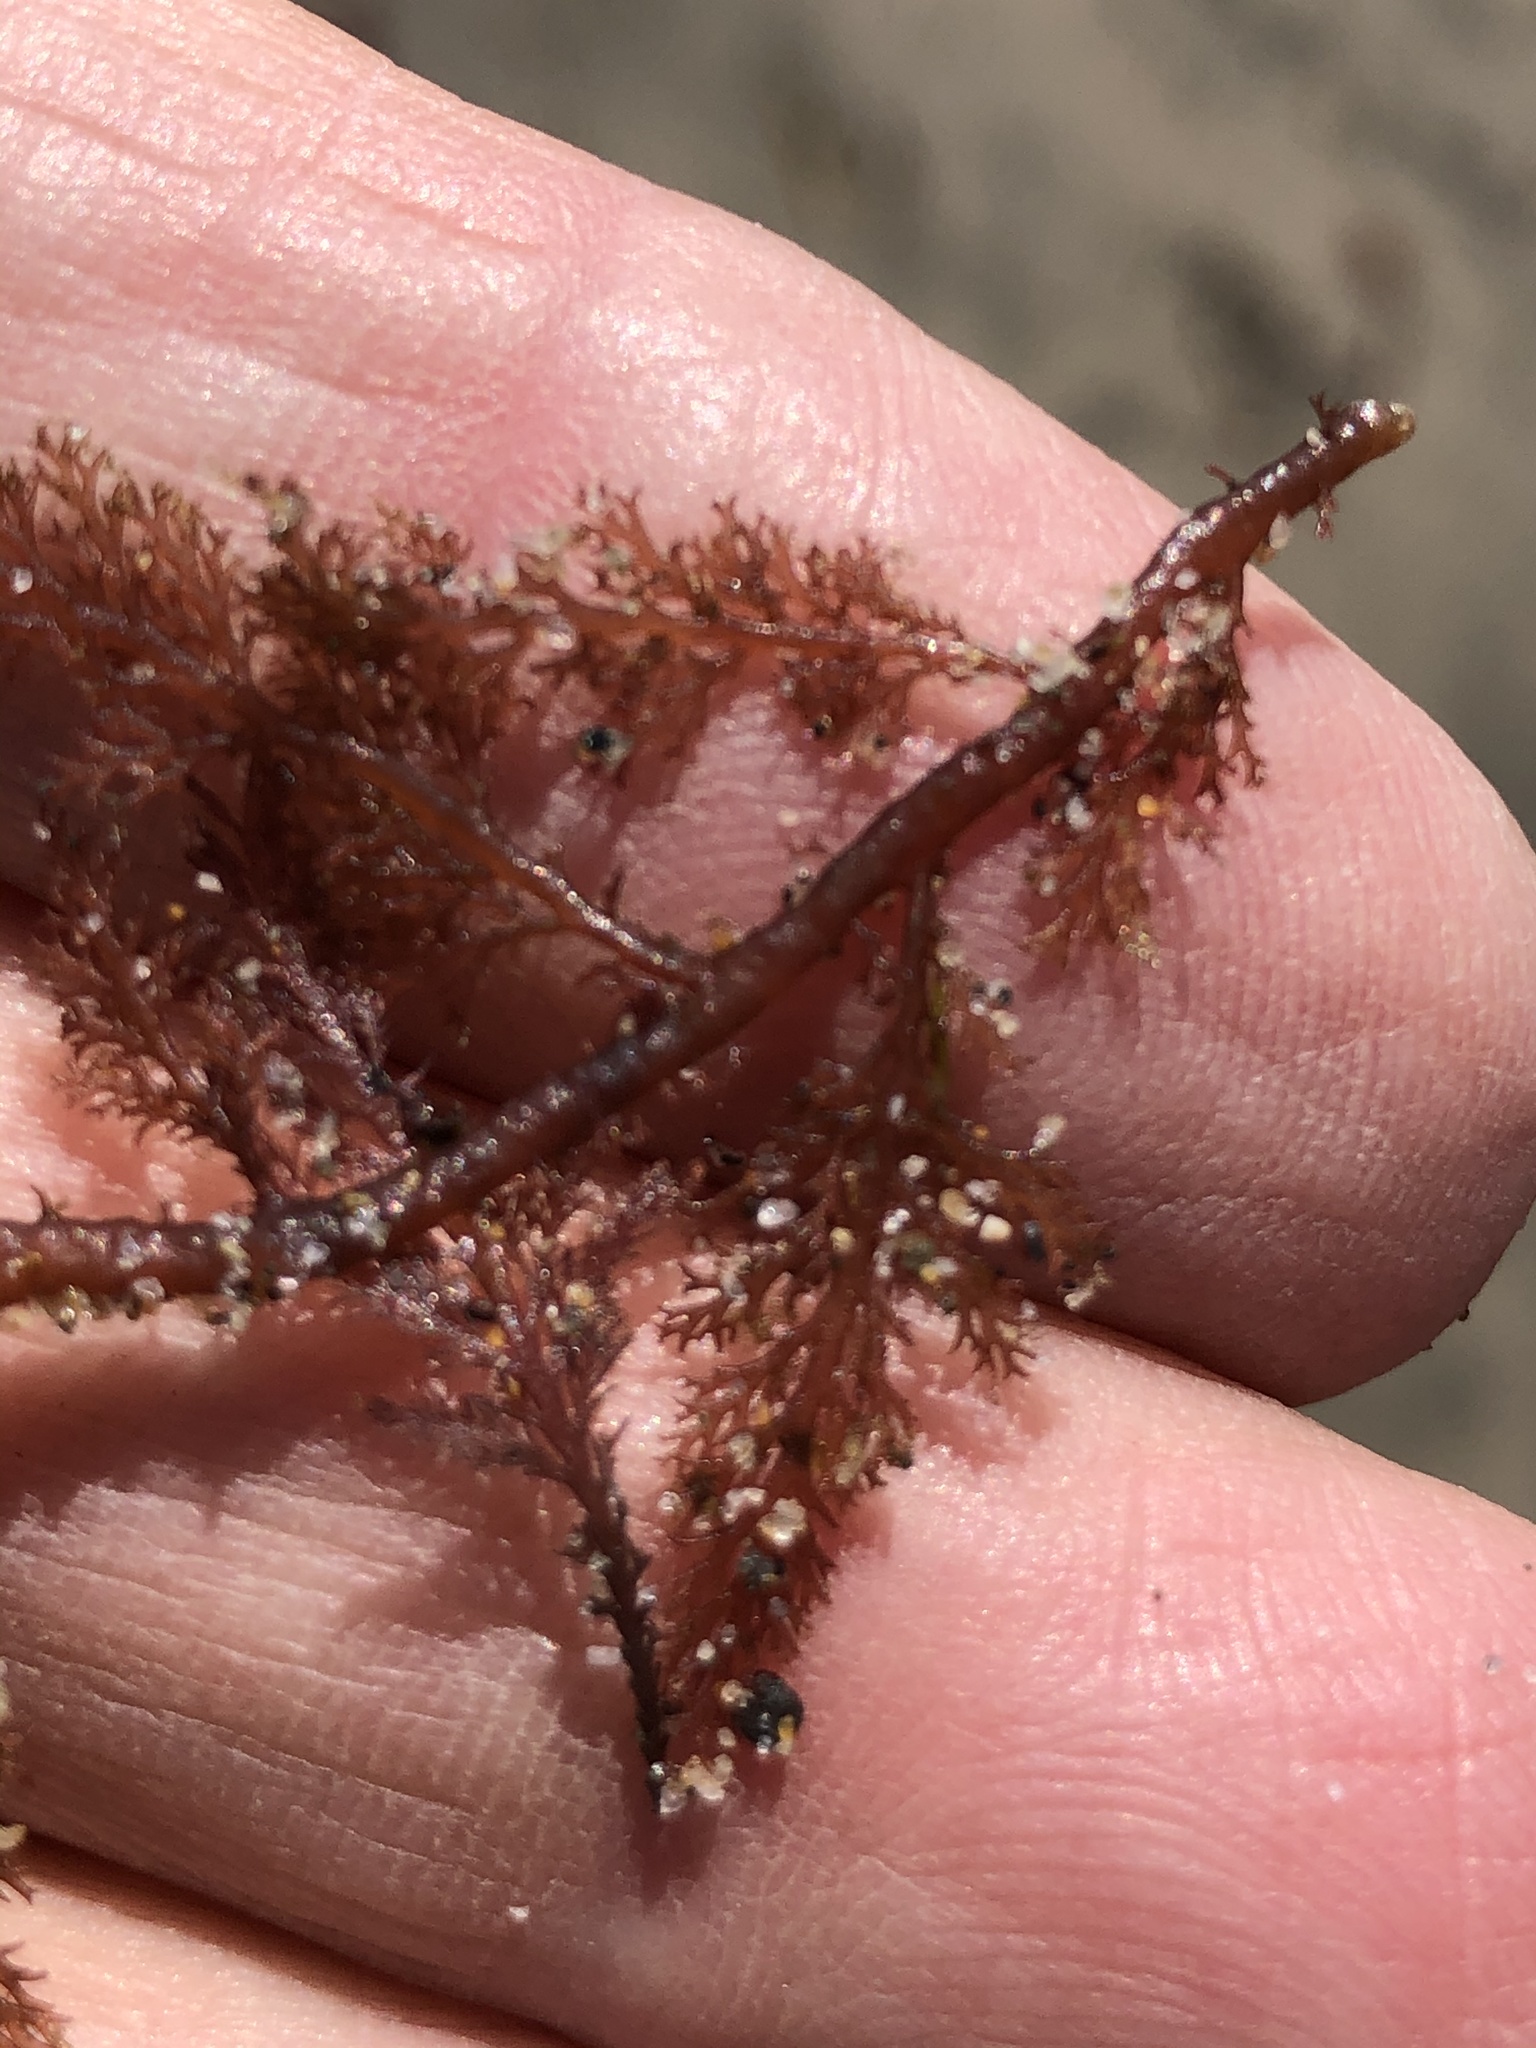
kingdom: Plantae
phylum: Rhodophyta
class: Florideophyceae
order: Ceramiales
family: Ceramiaceae
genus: Microcladia
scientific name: Microcladia coulteri
